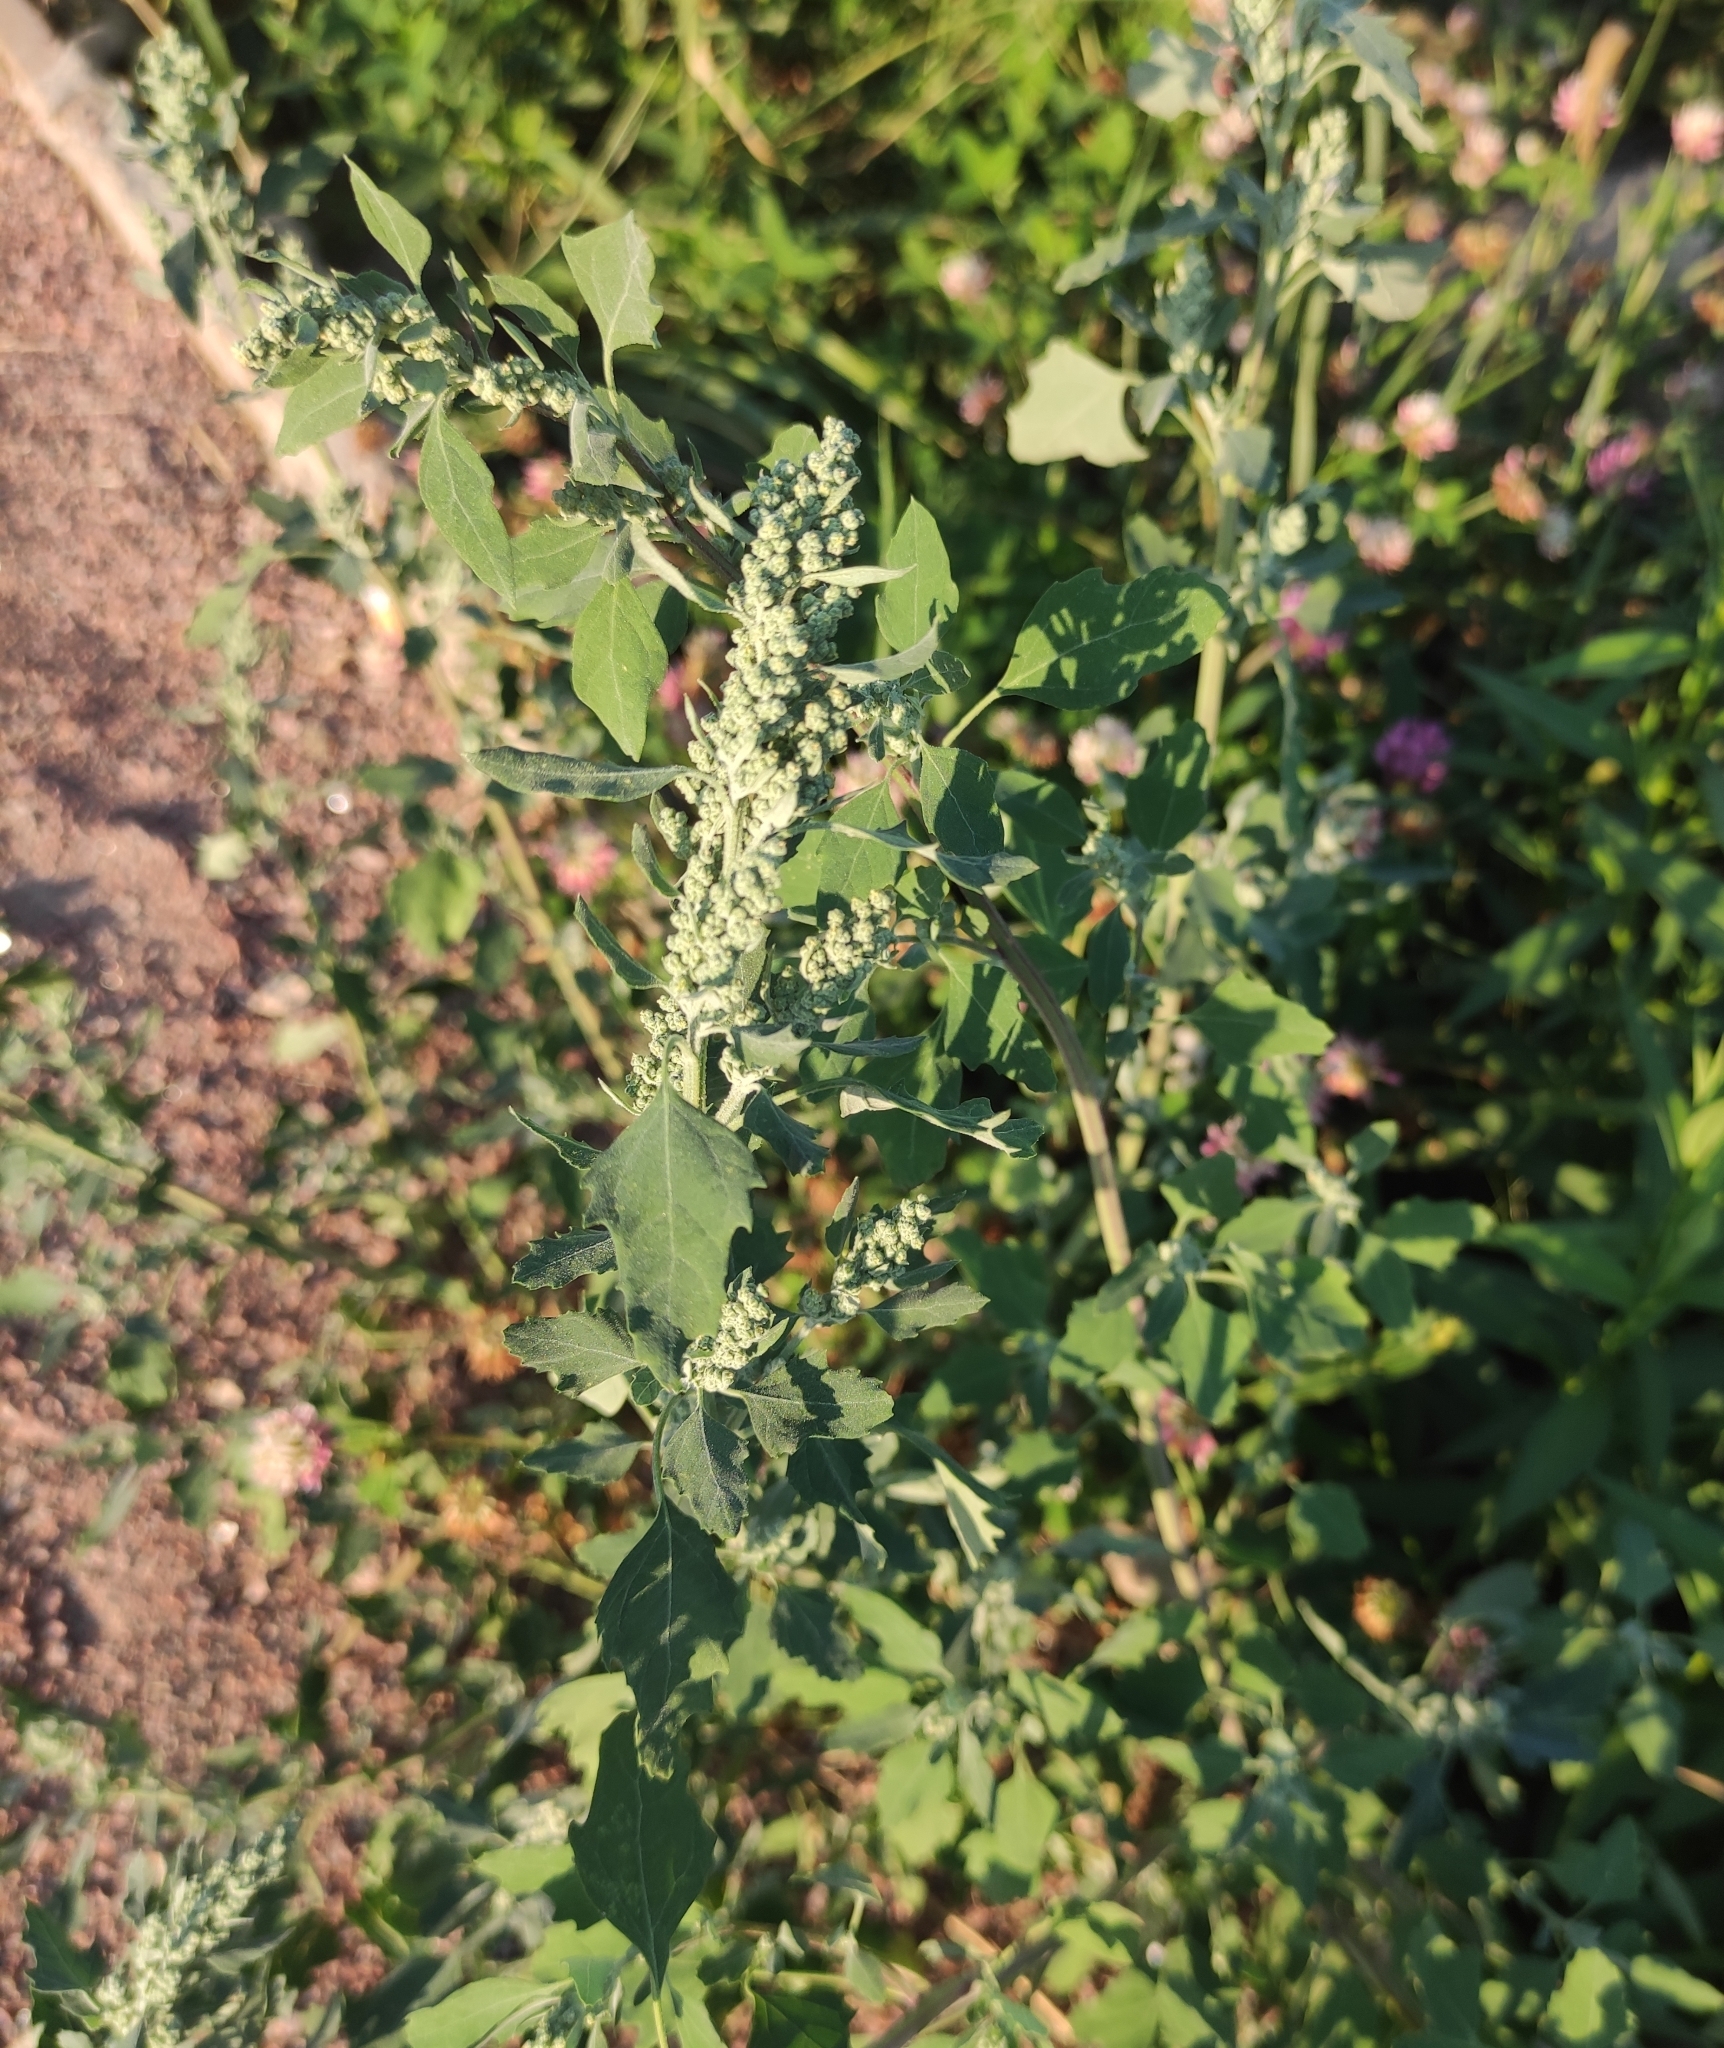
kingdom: Plantae
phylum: Tracheophyta
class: Magnoliopsida
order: Caryophyllales
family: Amaranthaceae
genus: Chenopodium
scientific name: Chenopodium album
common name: Fat-hen
